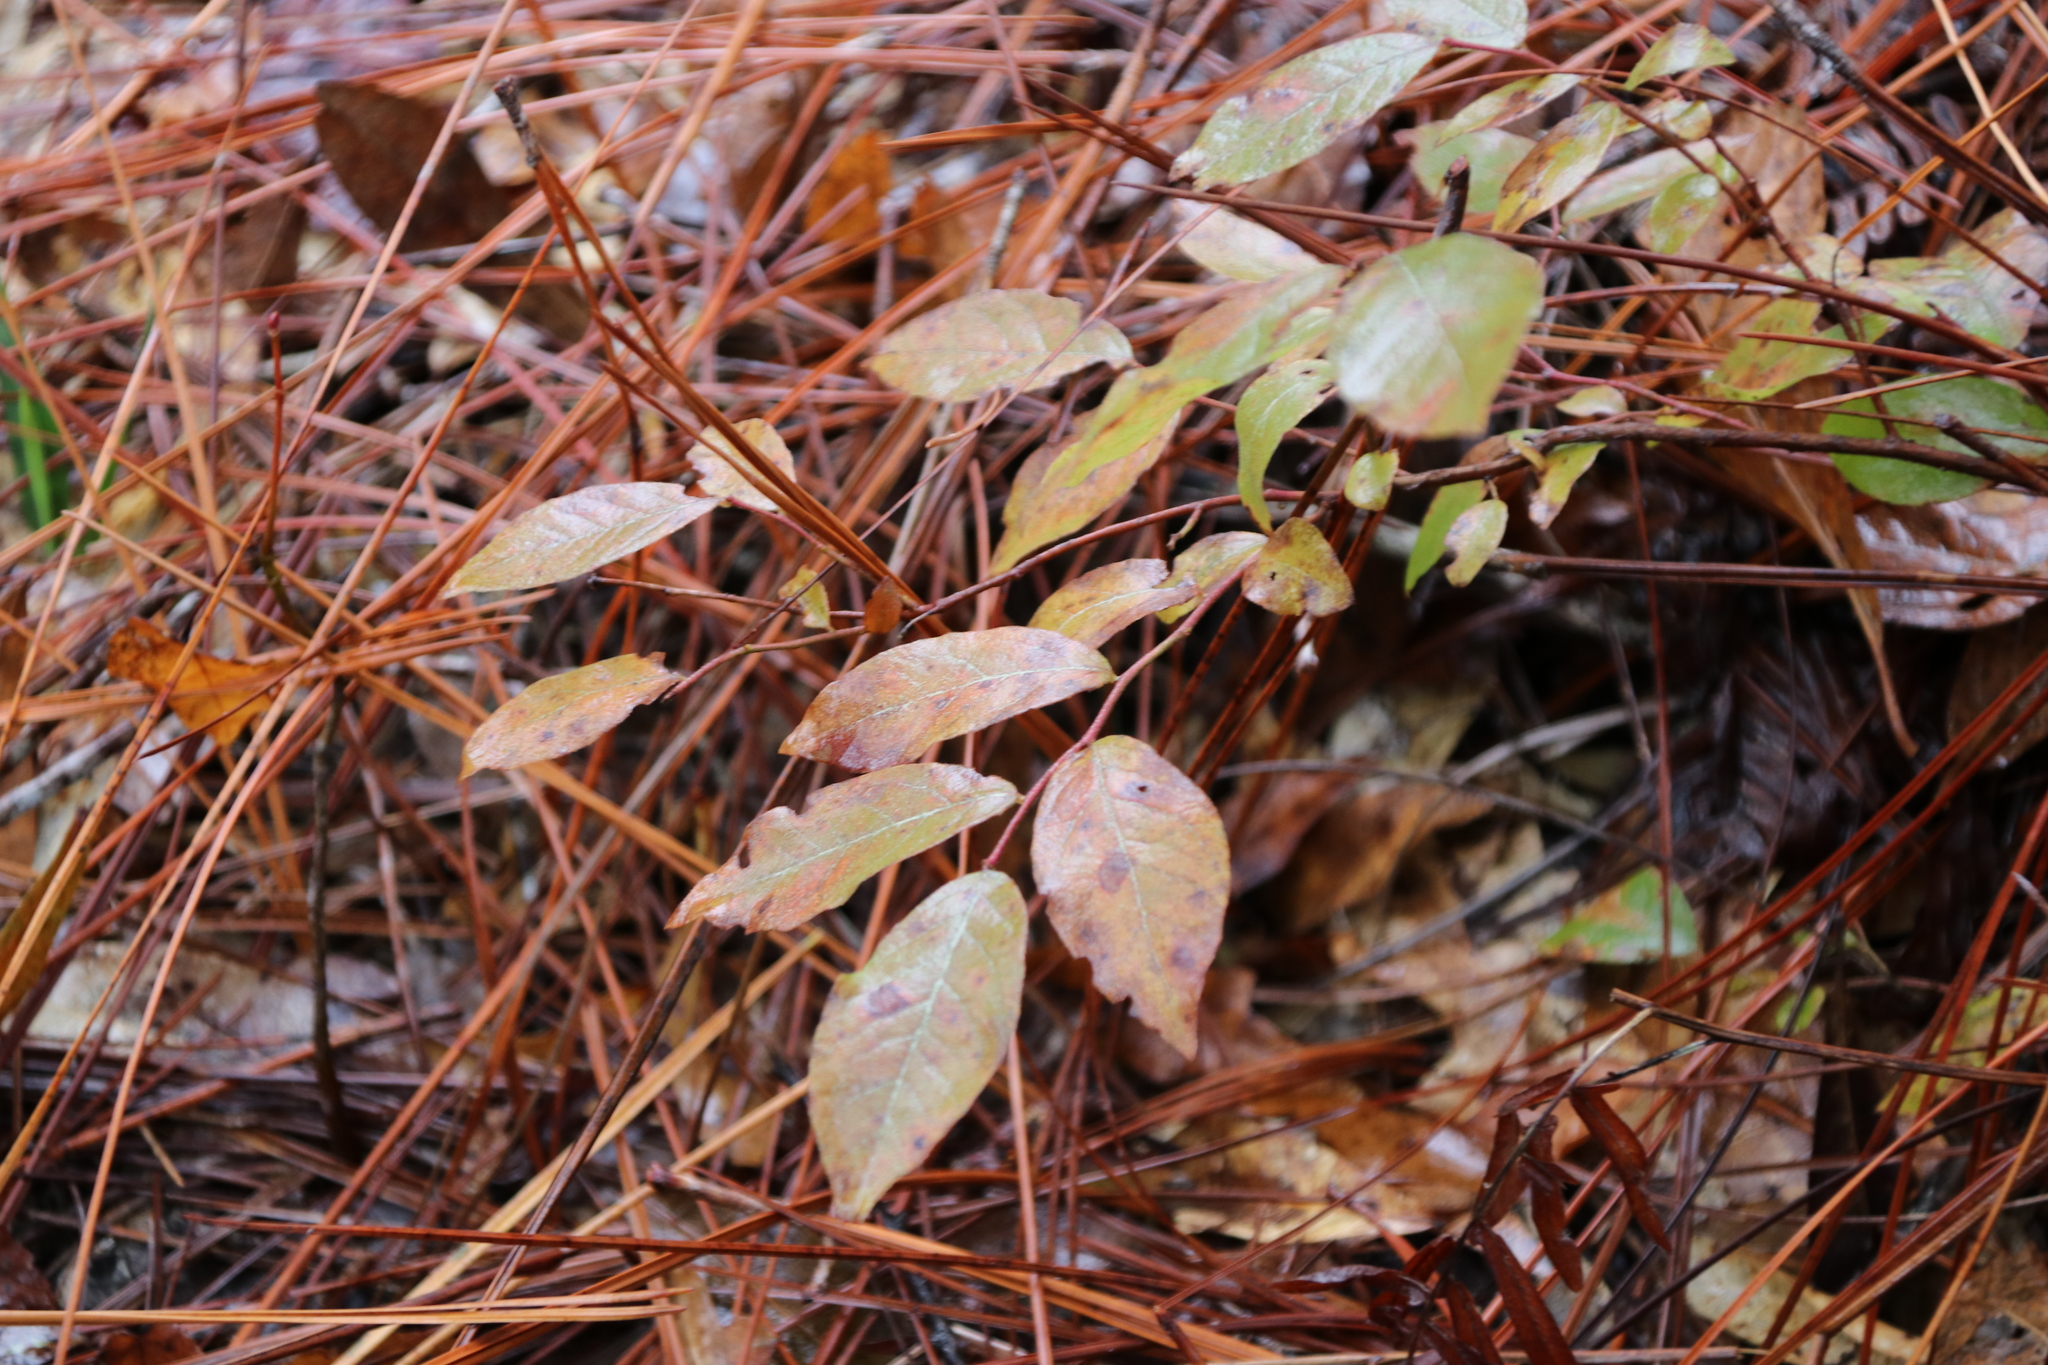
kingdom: Plantae
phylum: Tracheophyta
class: Magnoliopsida
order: Ericales
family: Ericaceae
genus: Vaccinium
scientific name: Vaccinium stamineum
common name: Deerberry
